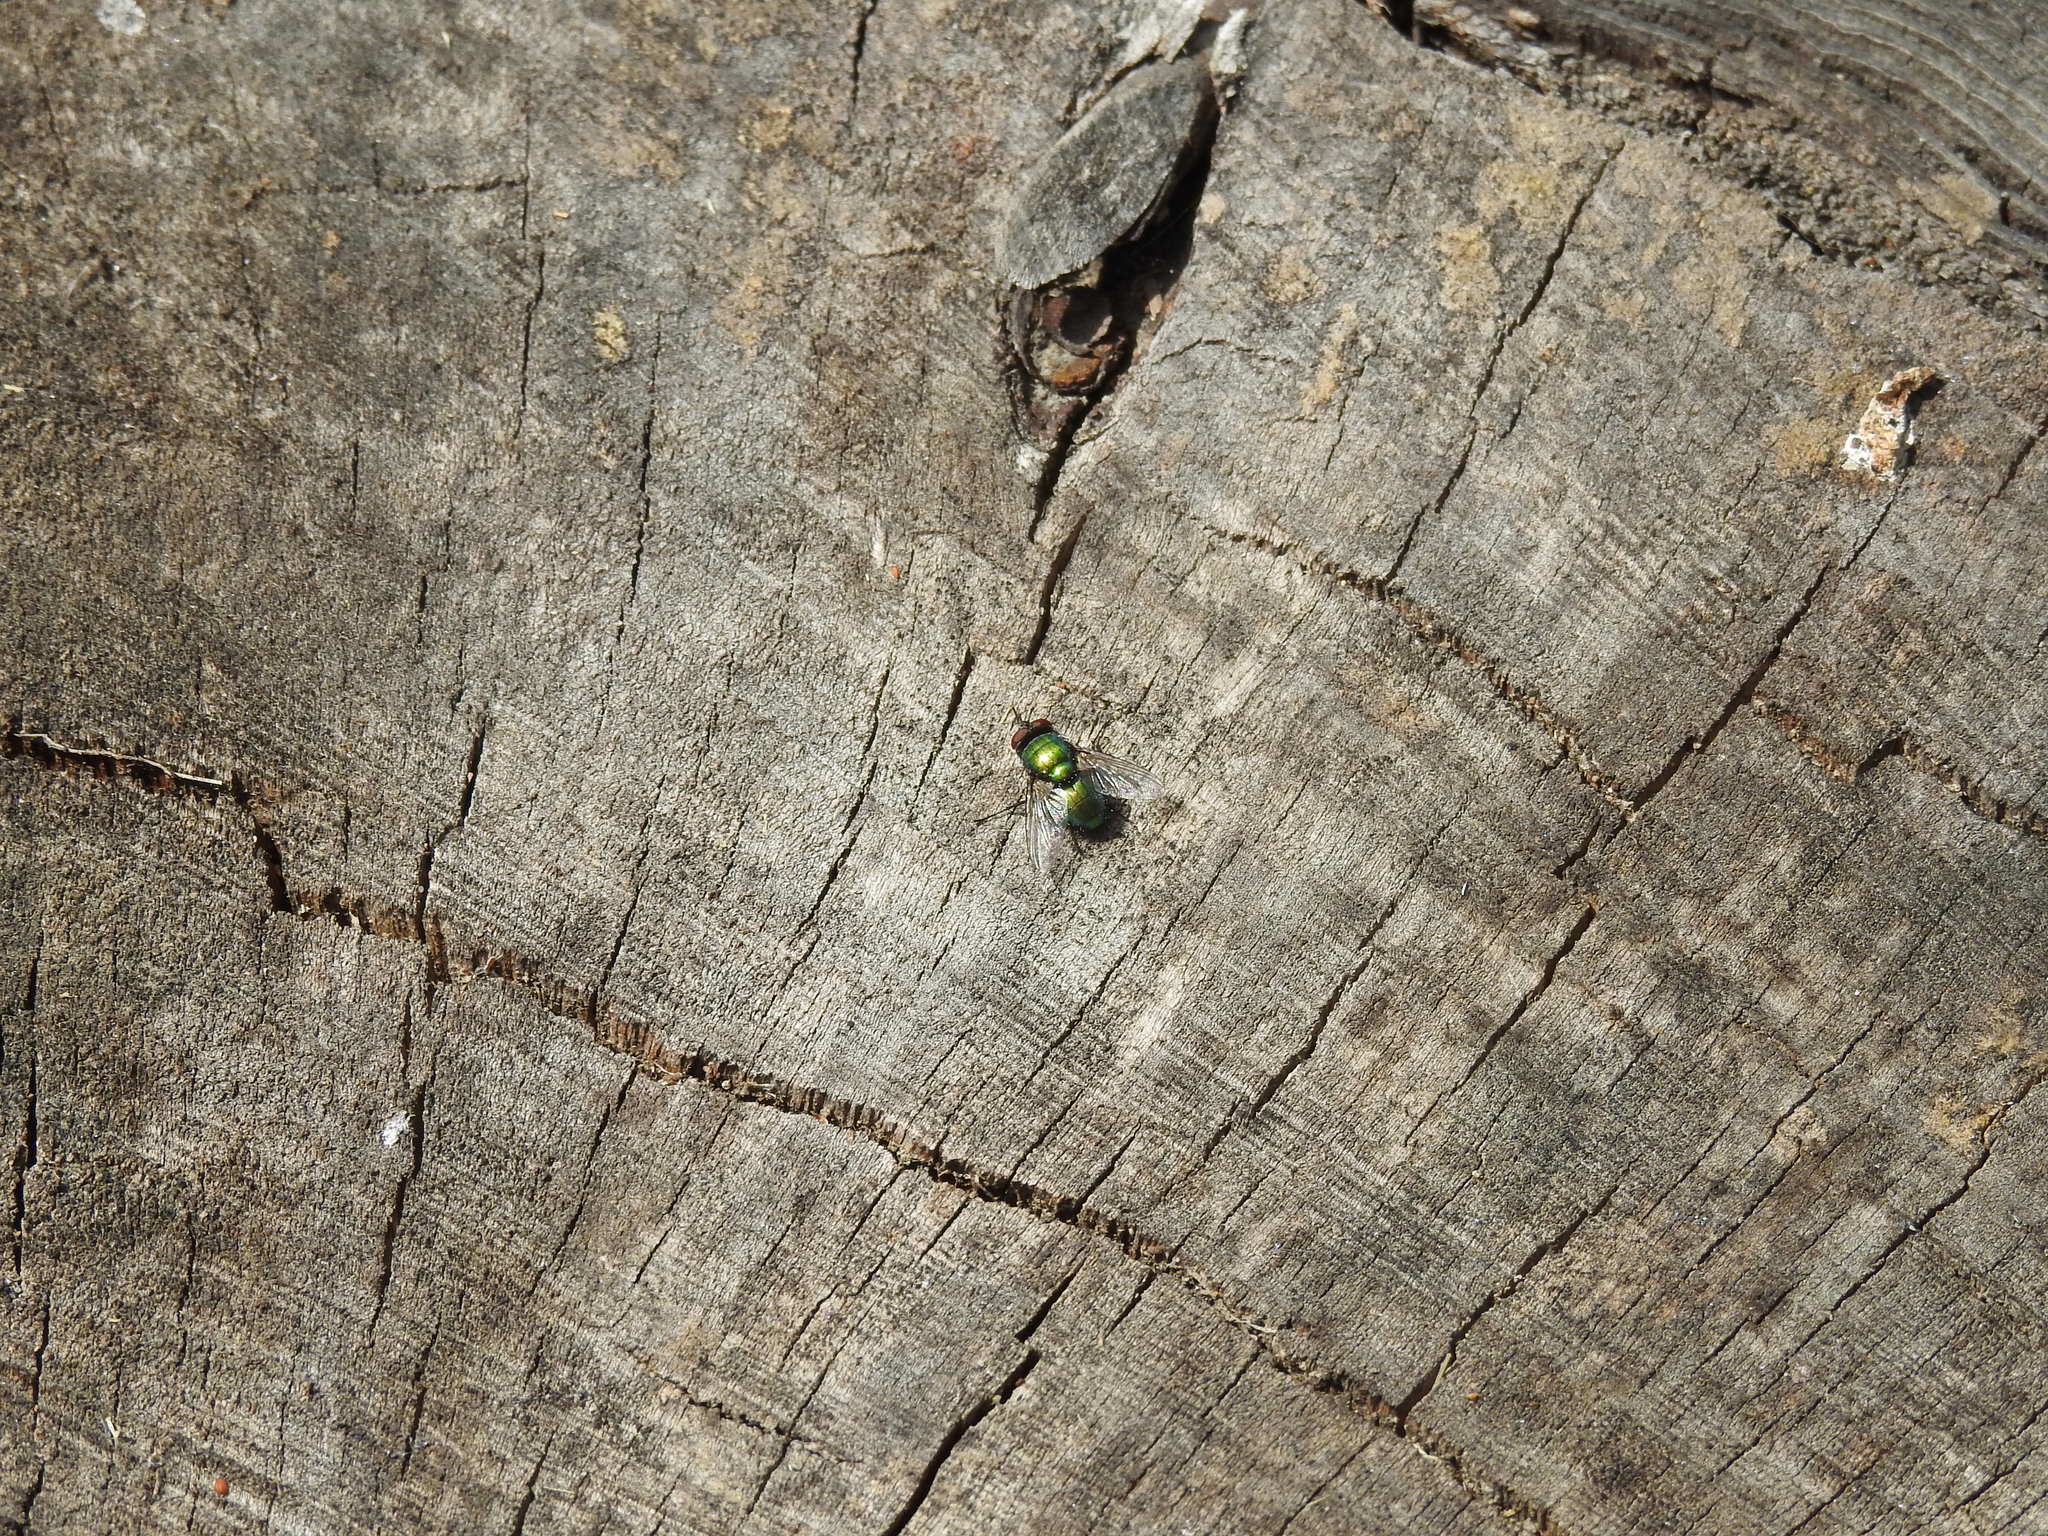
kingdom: Animalia
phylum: Arthropoda
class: Insecta
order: Diptera
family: Calliphoridae
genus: Lucilia
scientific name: Lucilia sericata
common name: Blow fly
